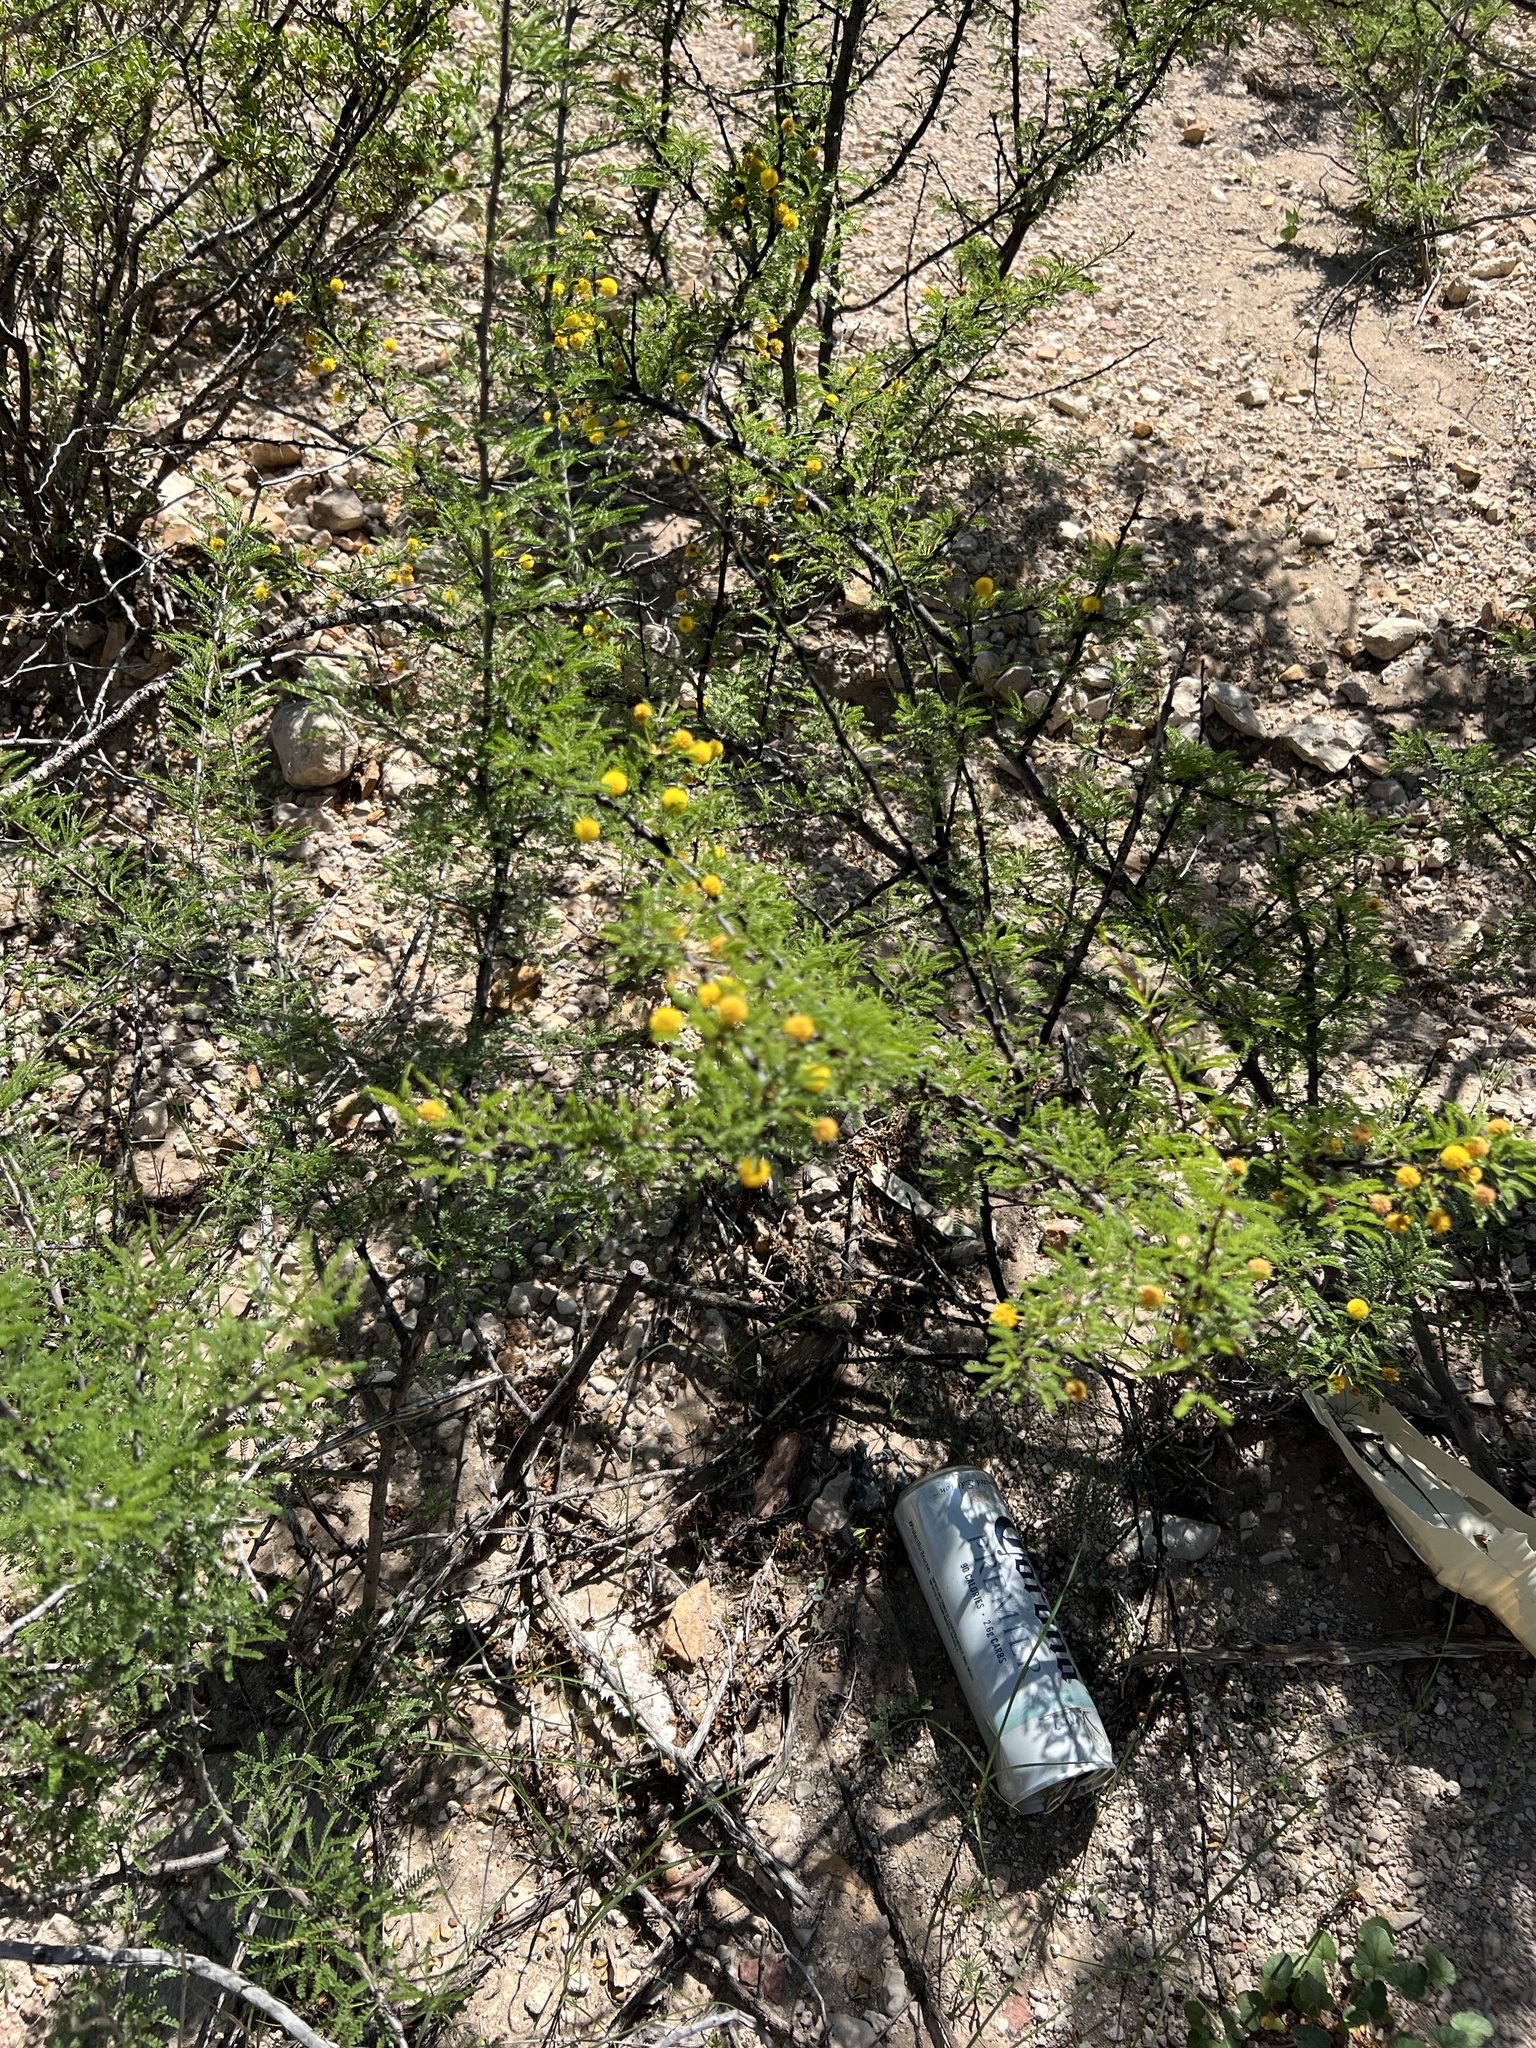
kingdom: Plantae
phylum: Tracheophyta
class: Magnoliopsida
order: Fabales
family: Fabaceae
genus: Vachellia
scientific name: Vachellia vernicosa
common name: Viscid acacia
